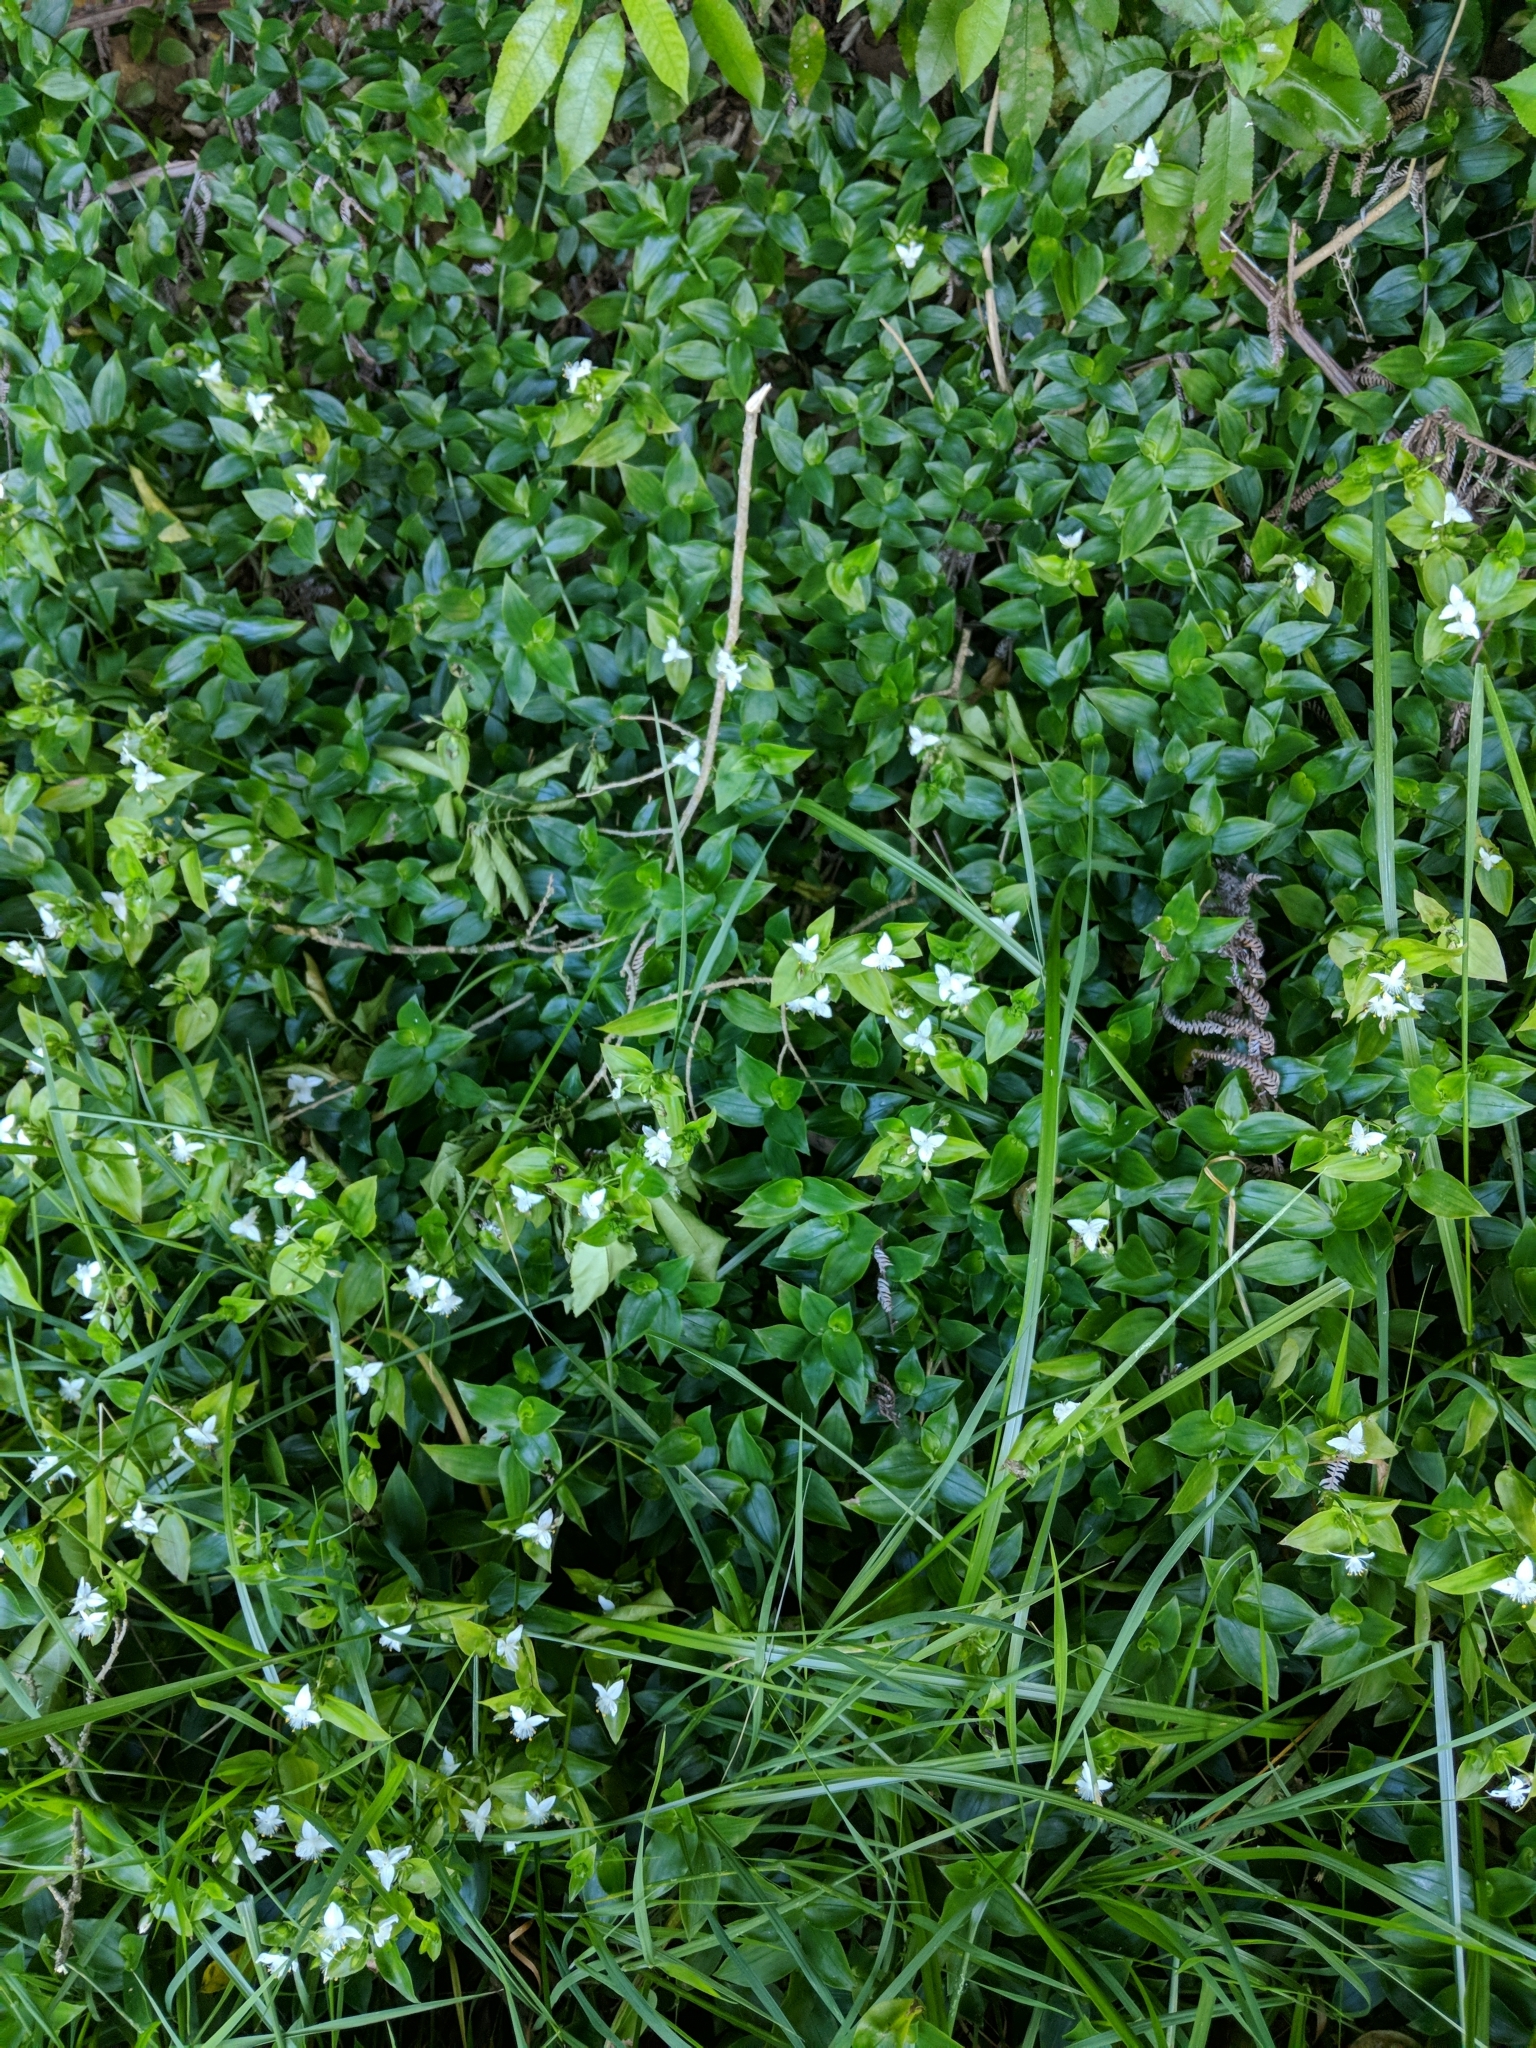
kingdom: Plantae
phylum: Tracheophyta
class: Liliopsida
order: Commelinales
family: Commelinaceae
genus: Tradescantia
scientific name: Tradescantia fluminensis
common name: Wandering-jew
